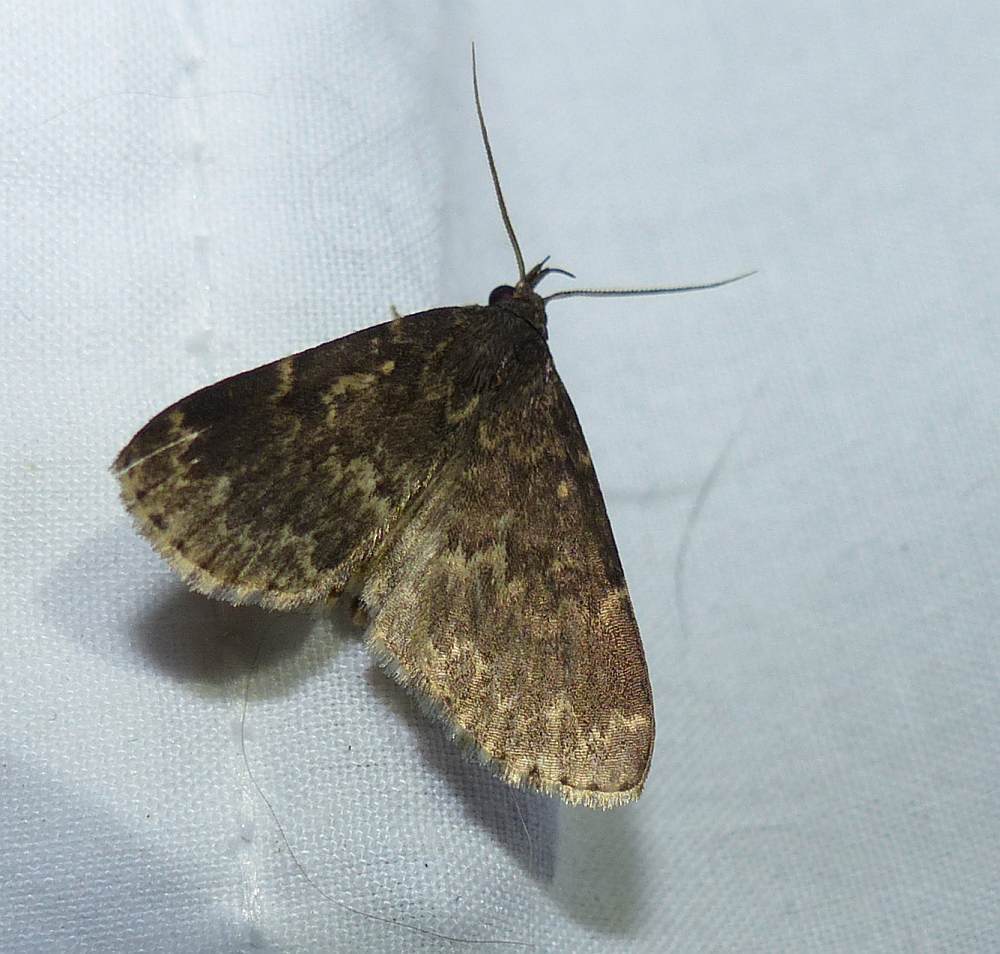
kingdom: Animalia
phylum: Arthropoda
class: Insecta
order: Lepidoptera
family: Erebidae
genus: Idia
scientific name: Idia lubricalis
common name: Twin-striped tabby
